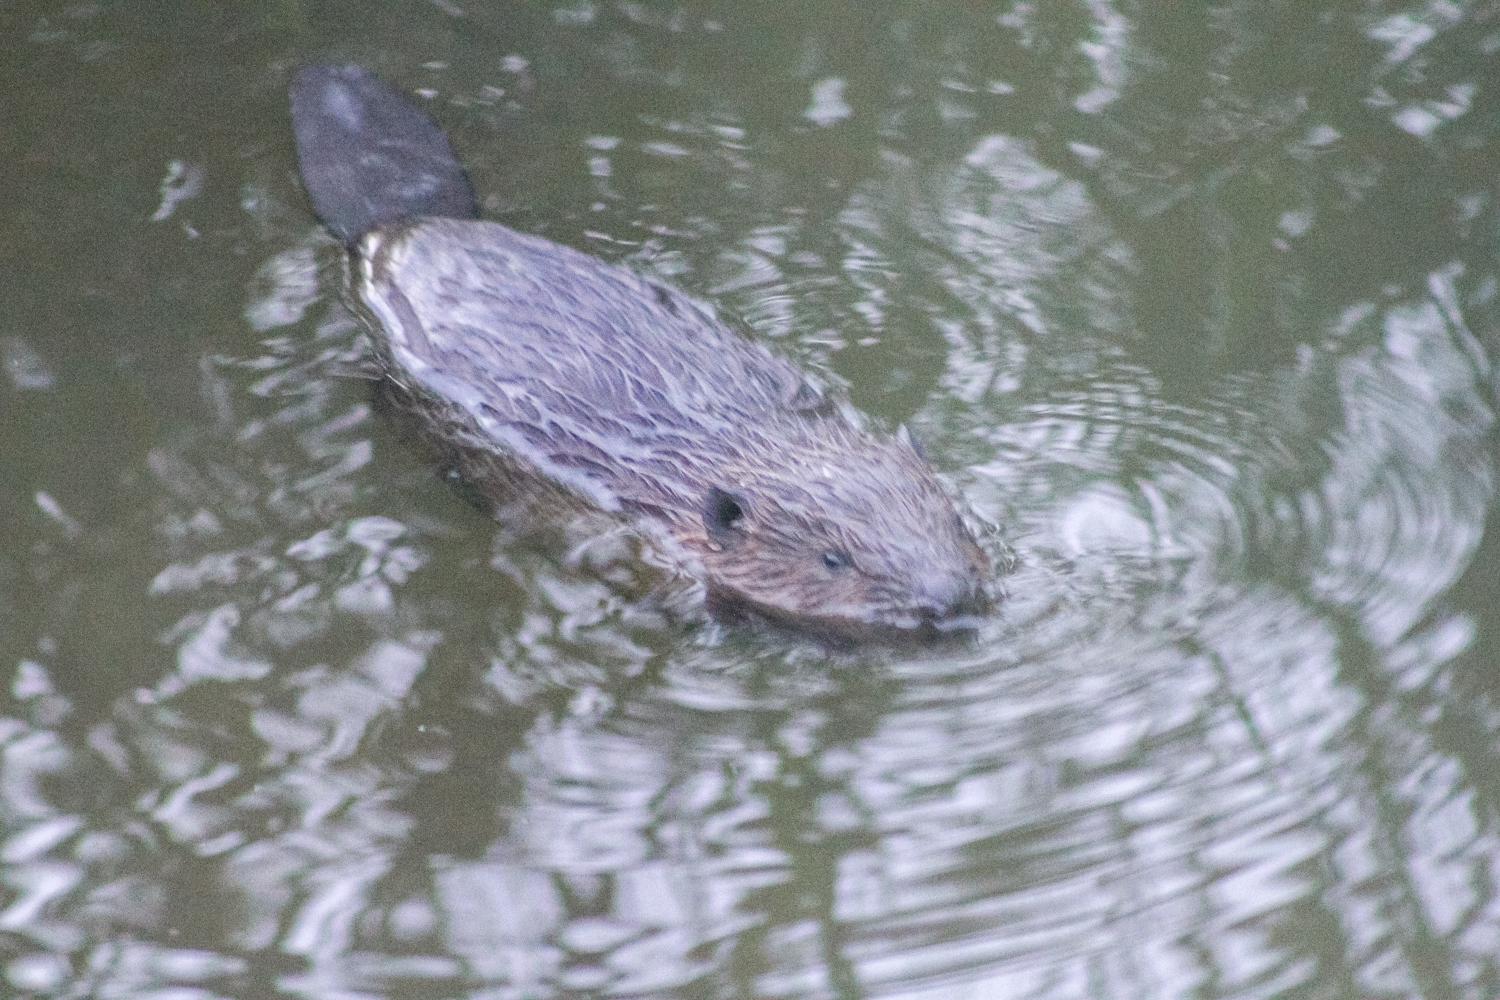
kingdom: Animalia
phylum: Chordata
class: Mammalia
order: Rodentia
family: Castoridae
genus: Castor
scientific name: Castor fiber
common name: Eurasian beaver
